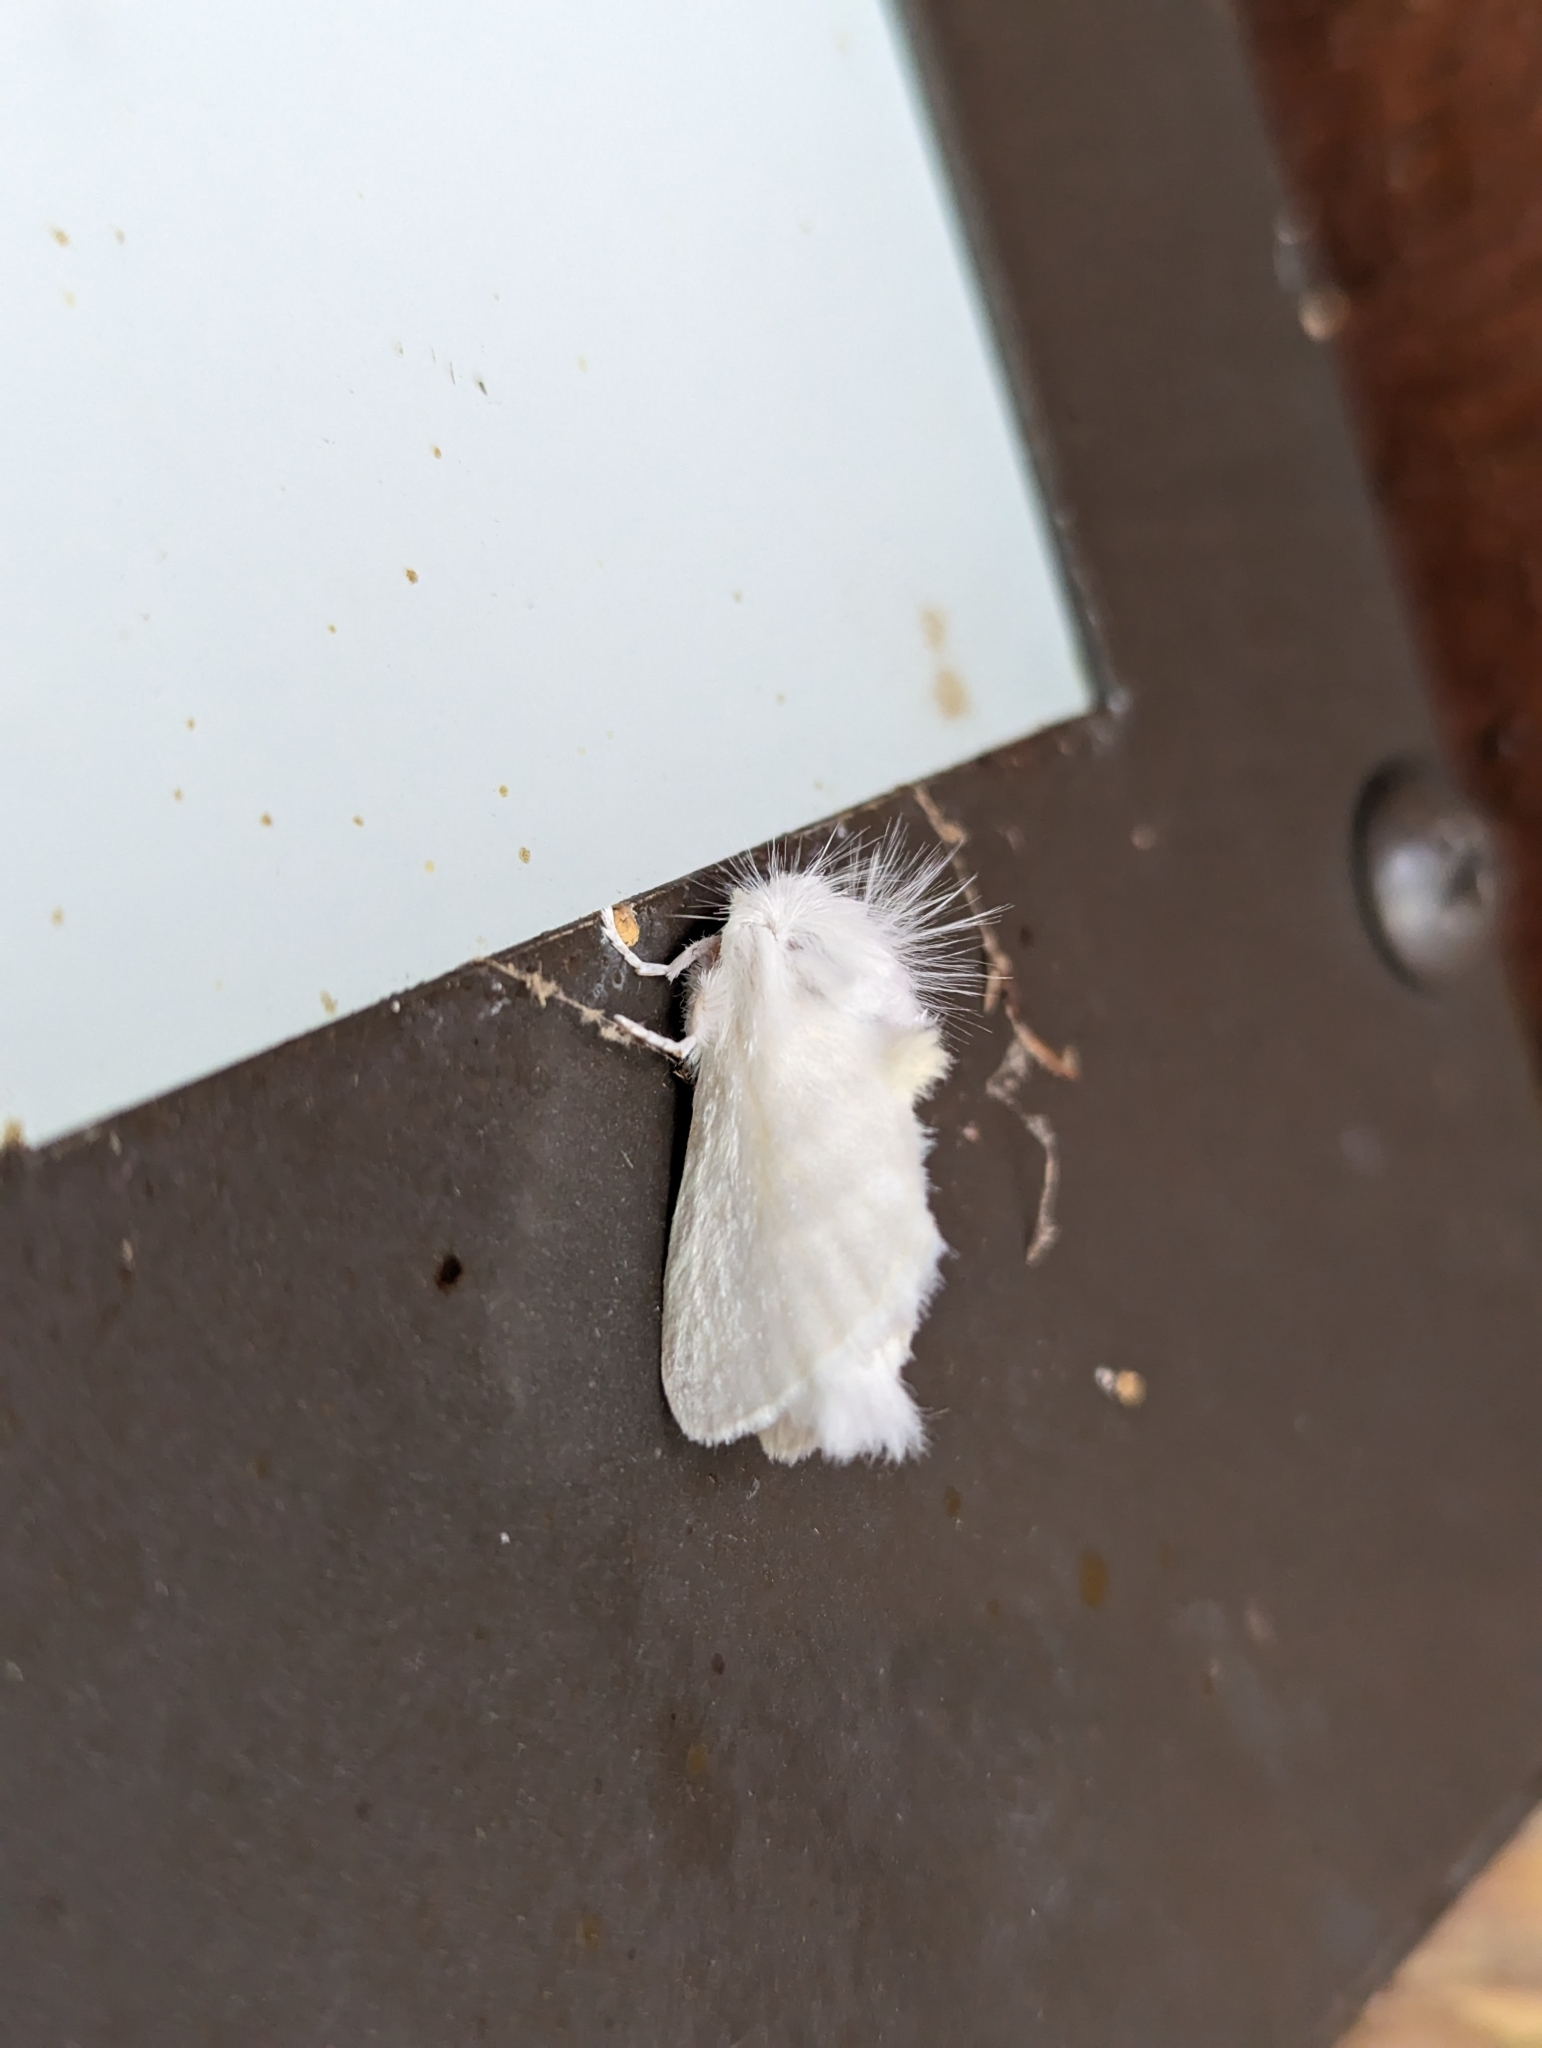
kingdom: Animalia
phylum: Arthropoda
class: Insecta
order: Lepidoptera
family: Megalopygidae
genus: Norape
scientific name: Norape cretata
